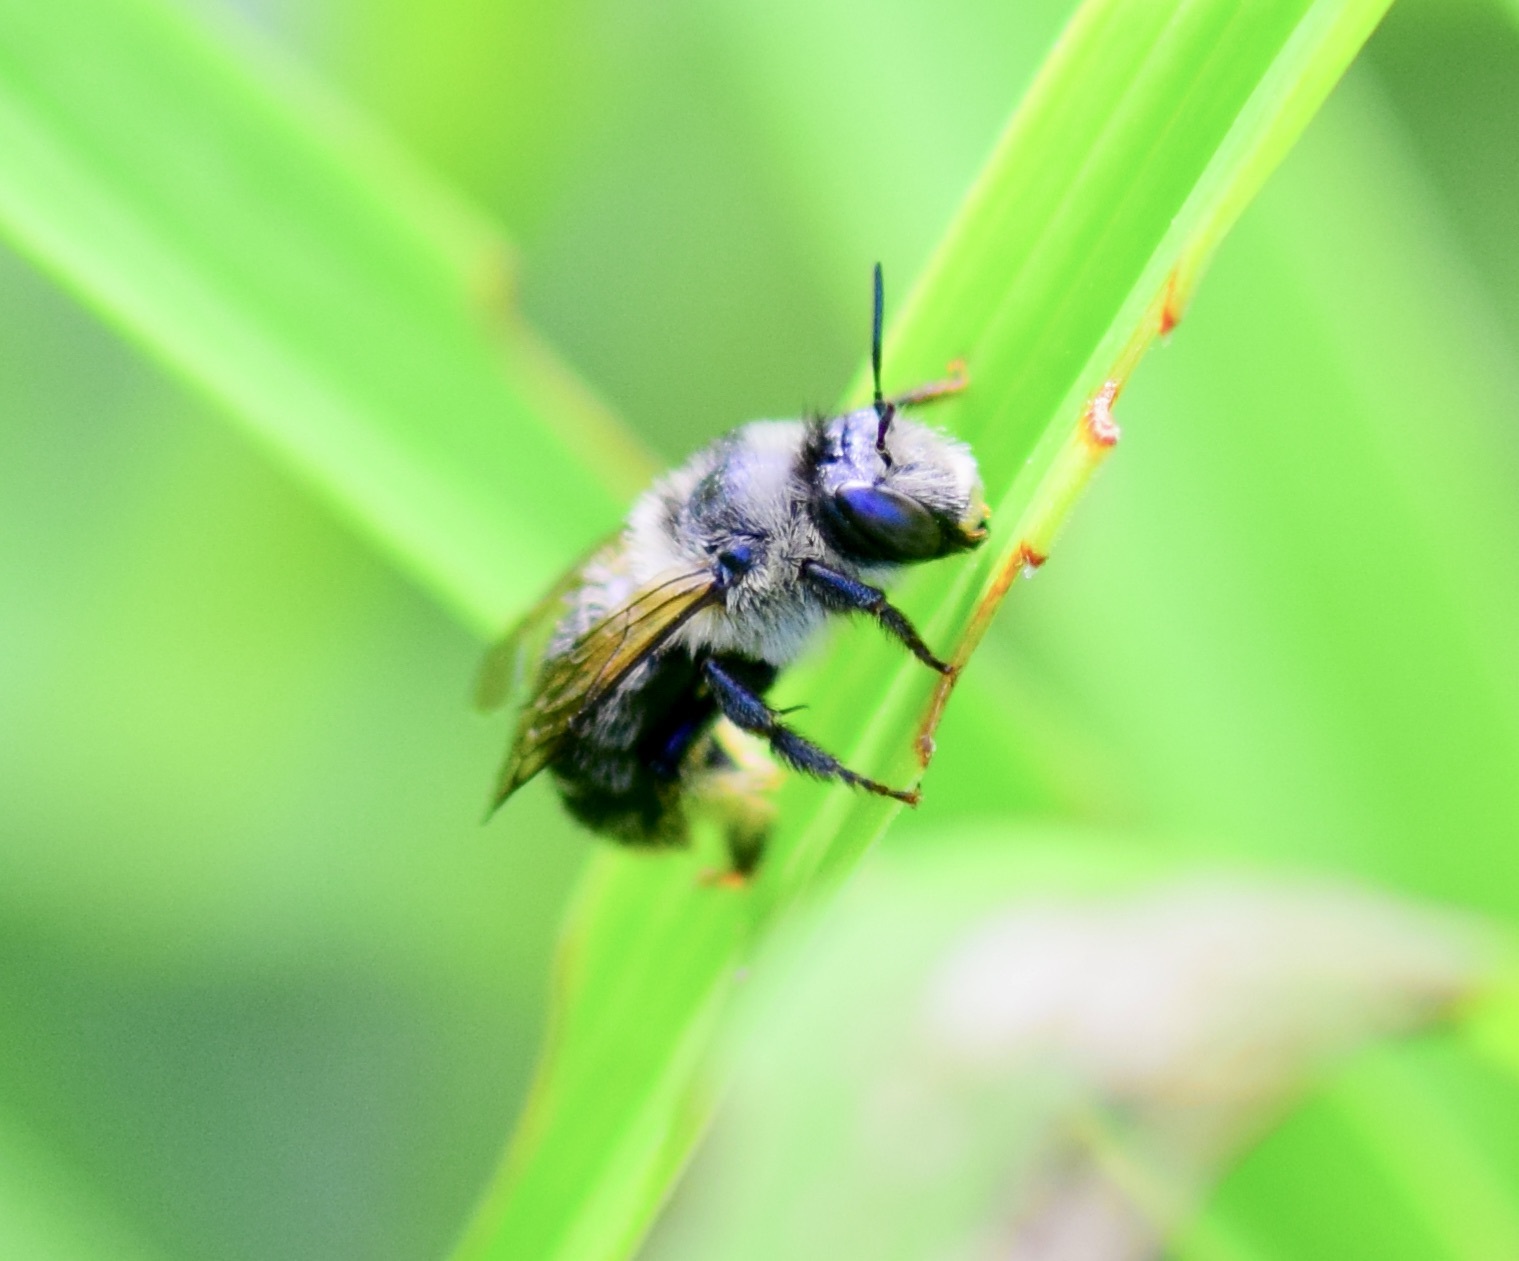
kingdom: Animalia
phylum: Arthropoda
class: Insecta
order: Hymenoptera
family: Apidae
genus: Anthophora
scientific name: Anthophora terminalis
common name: Orange-tipped wood-digger bee
